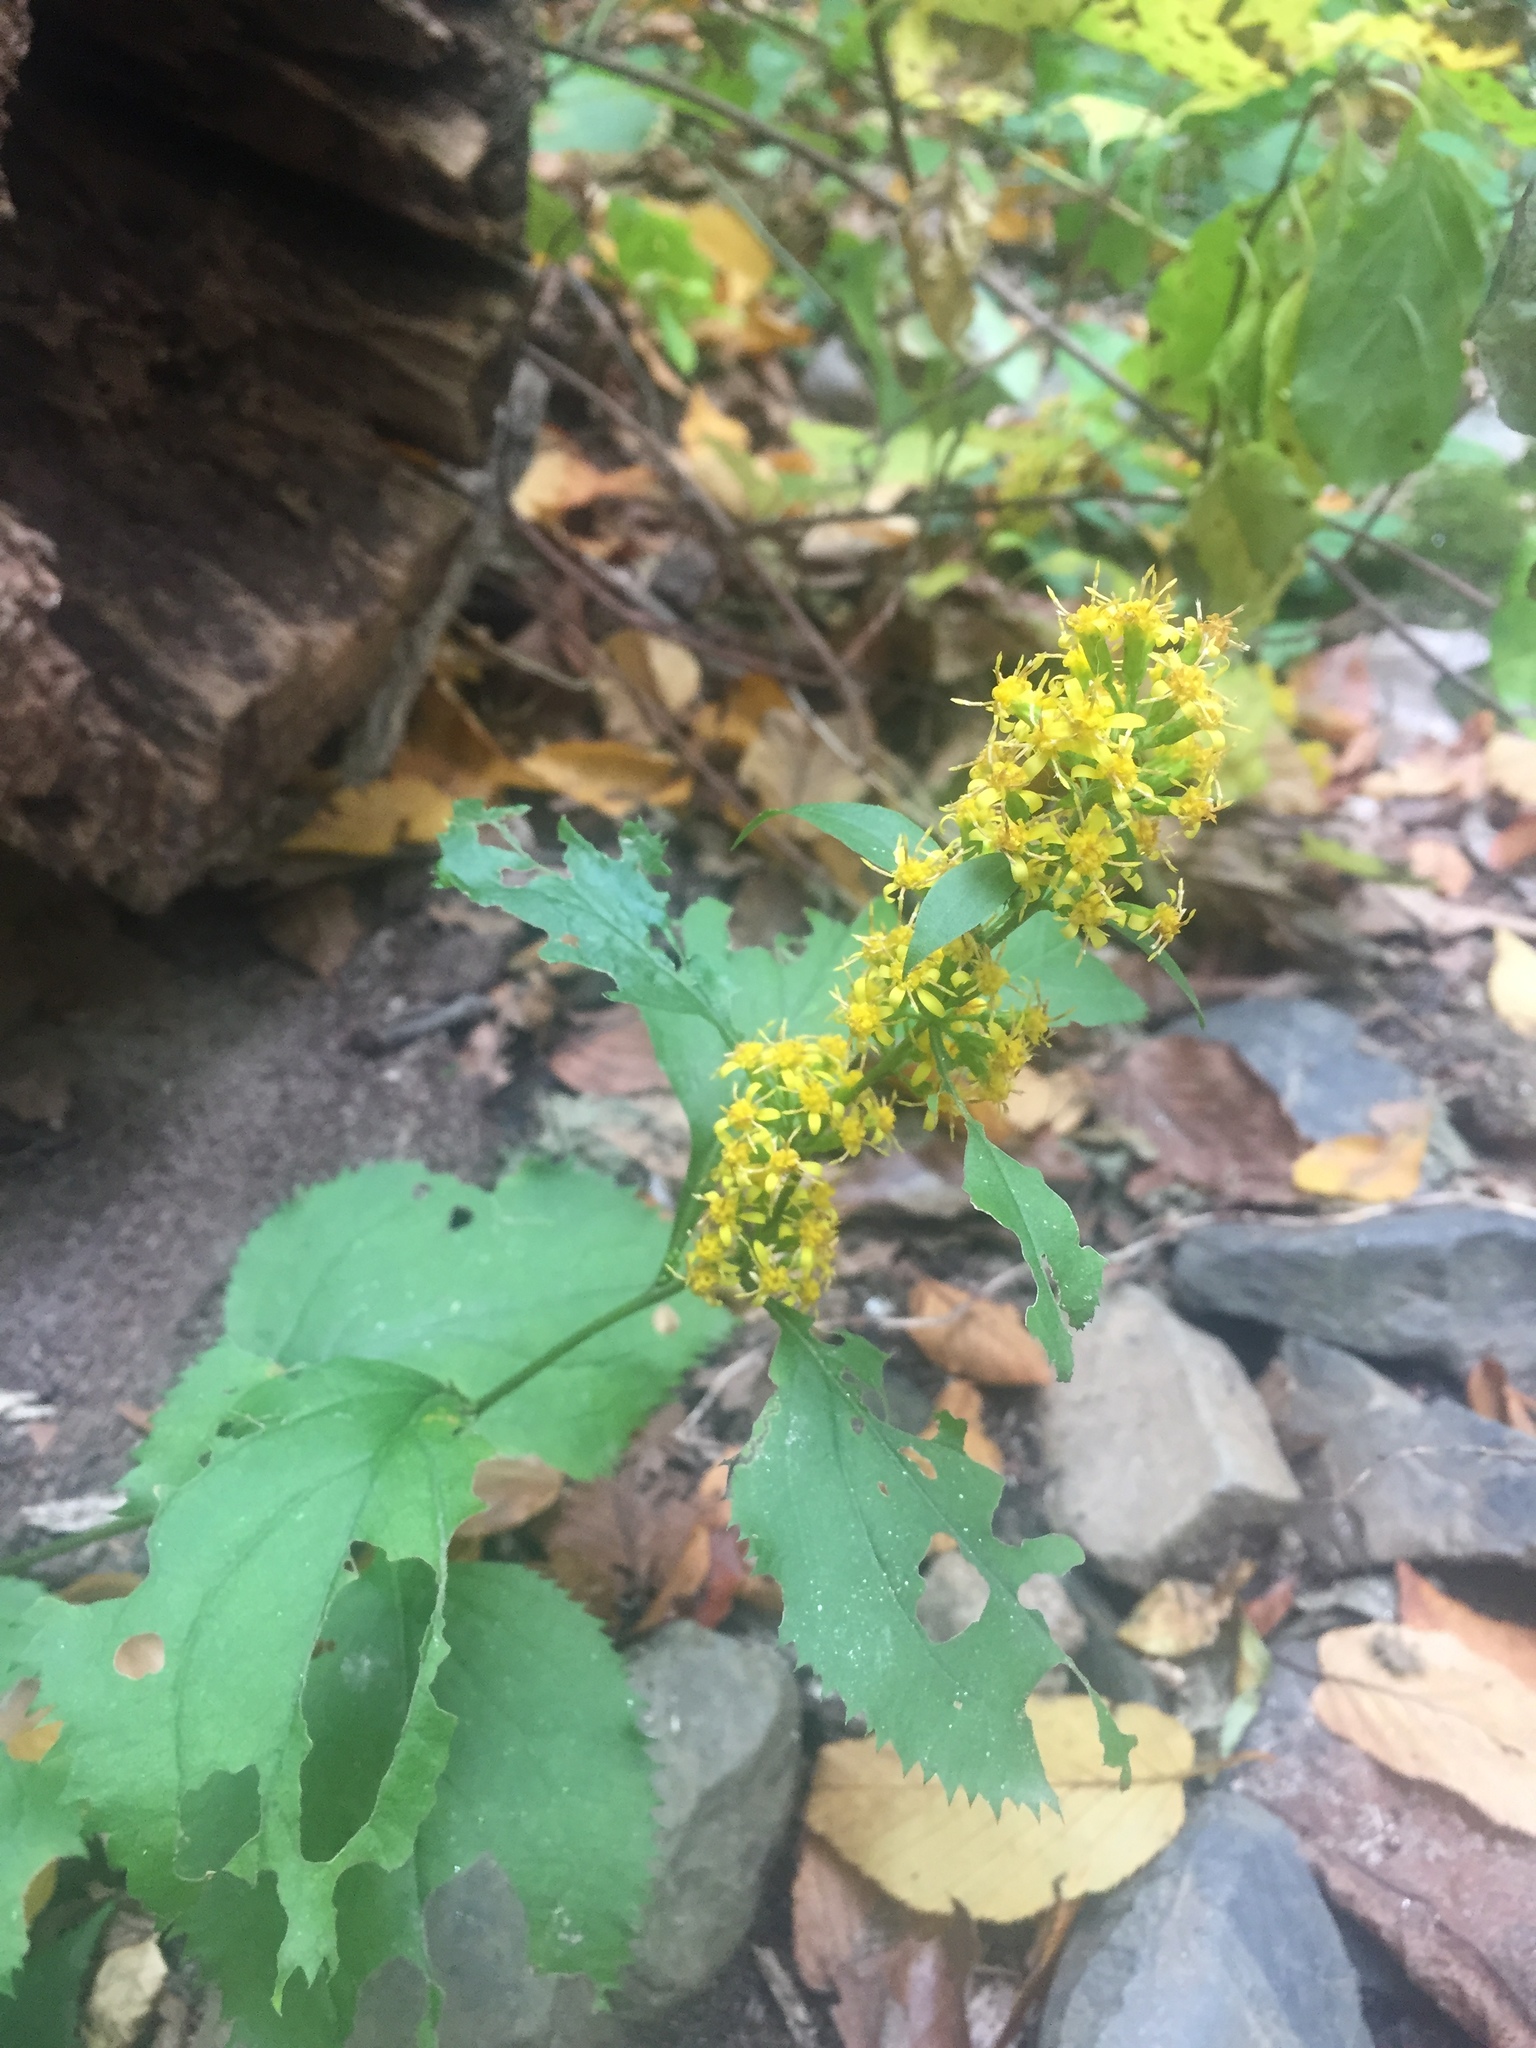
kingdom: Plantae
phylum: Tracheophyta
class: Magnoliopsida
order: Asterales
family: Asteraceae
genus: Solidago
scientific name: Solidago flexicaulis
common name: Zig-zag goldenrod
